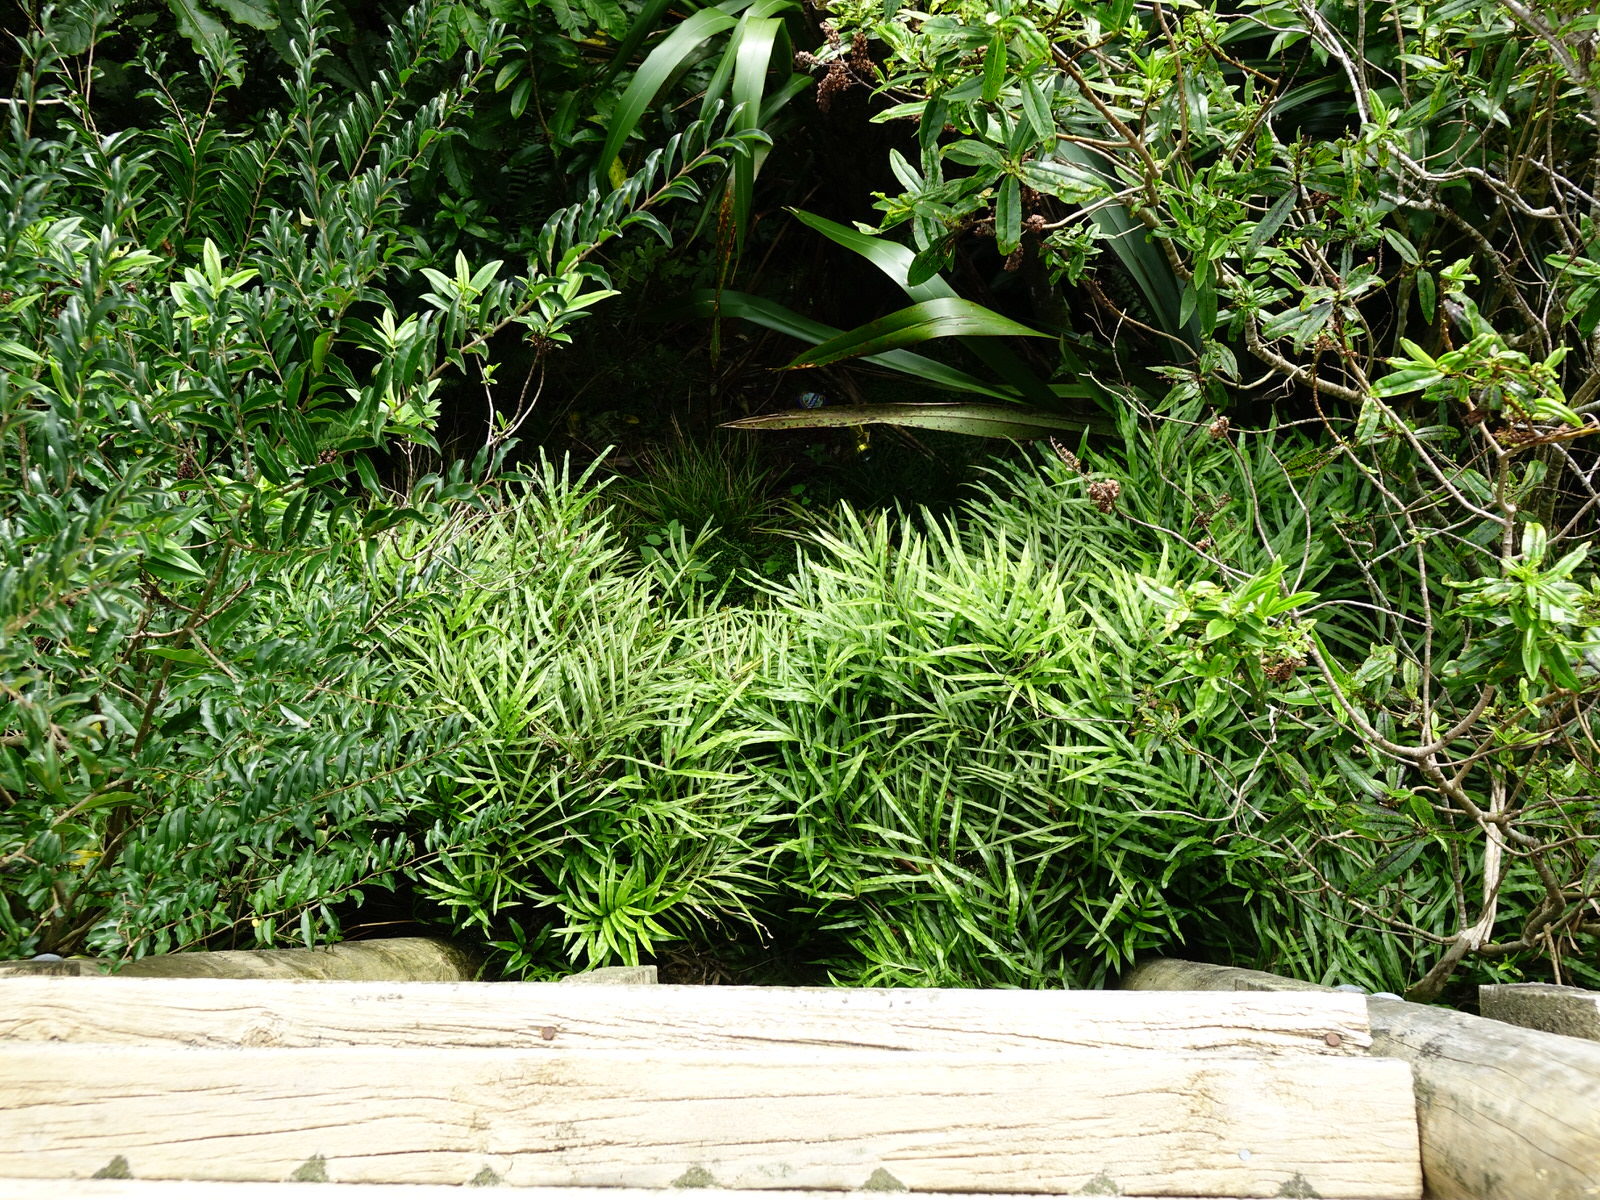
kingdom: Plantae
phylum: Tracheophyta
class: Polypodiopsida
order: Polypodiales
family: Pteridaceae
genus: Pteris
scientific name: Pteris cretica
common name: Ribbon fern
